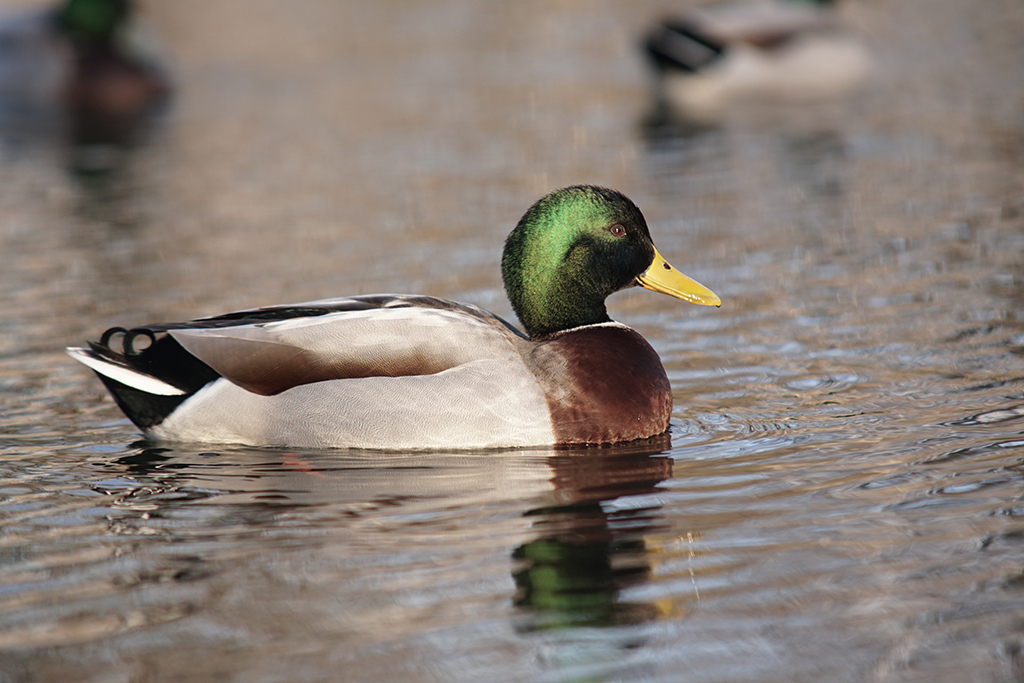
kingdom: Animalia
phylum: Chordata
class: Aves
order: Anseriformes
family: Anatidae
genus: Anas
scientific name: Anas platyrhynchos
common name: Mallard
